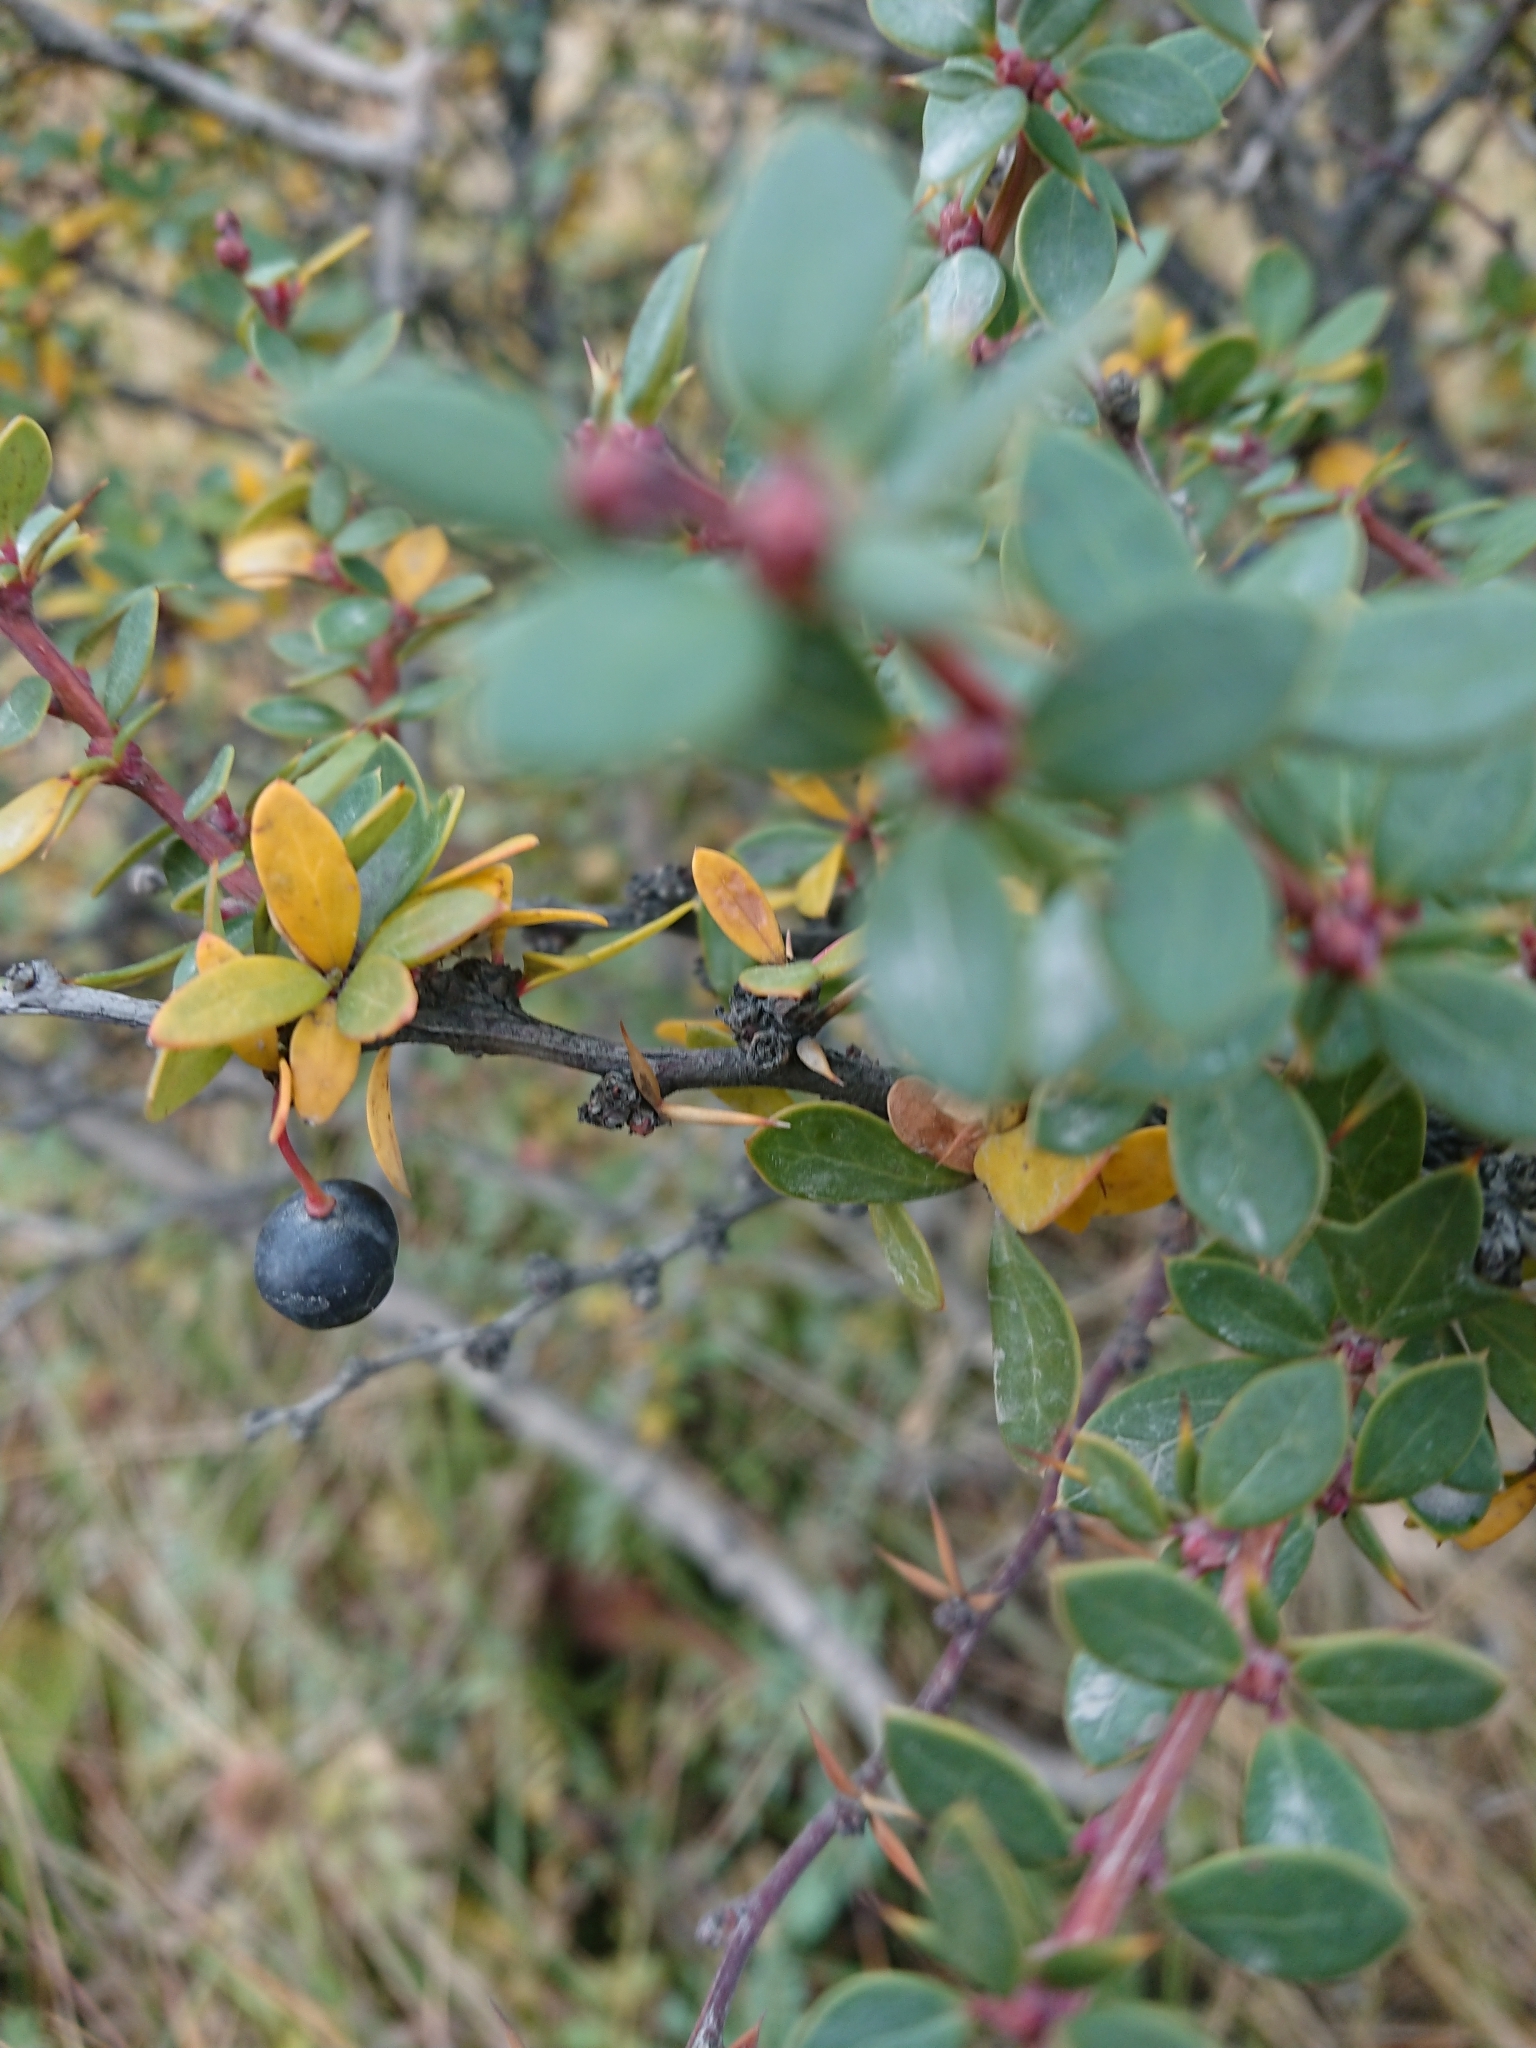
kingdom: Plantae
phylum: Tracheophyta
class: Magnoliopsida
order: Ranunculales
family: Berberidaceae
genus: Berberis
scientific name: Berberis microphylla
